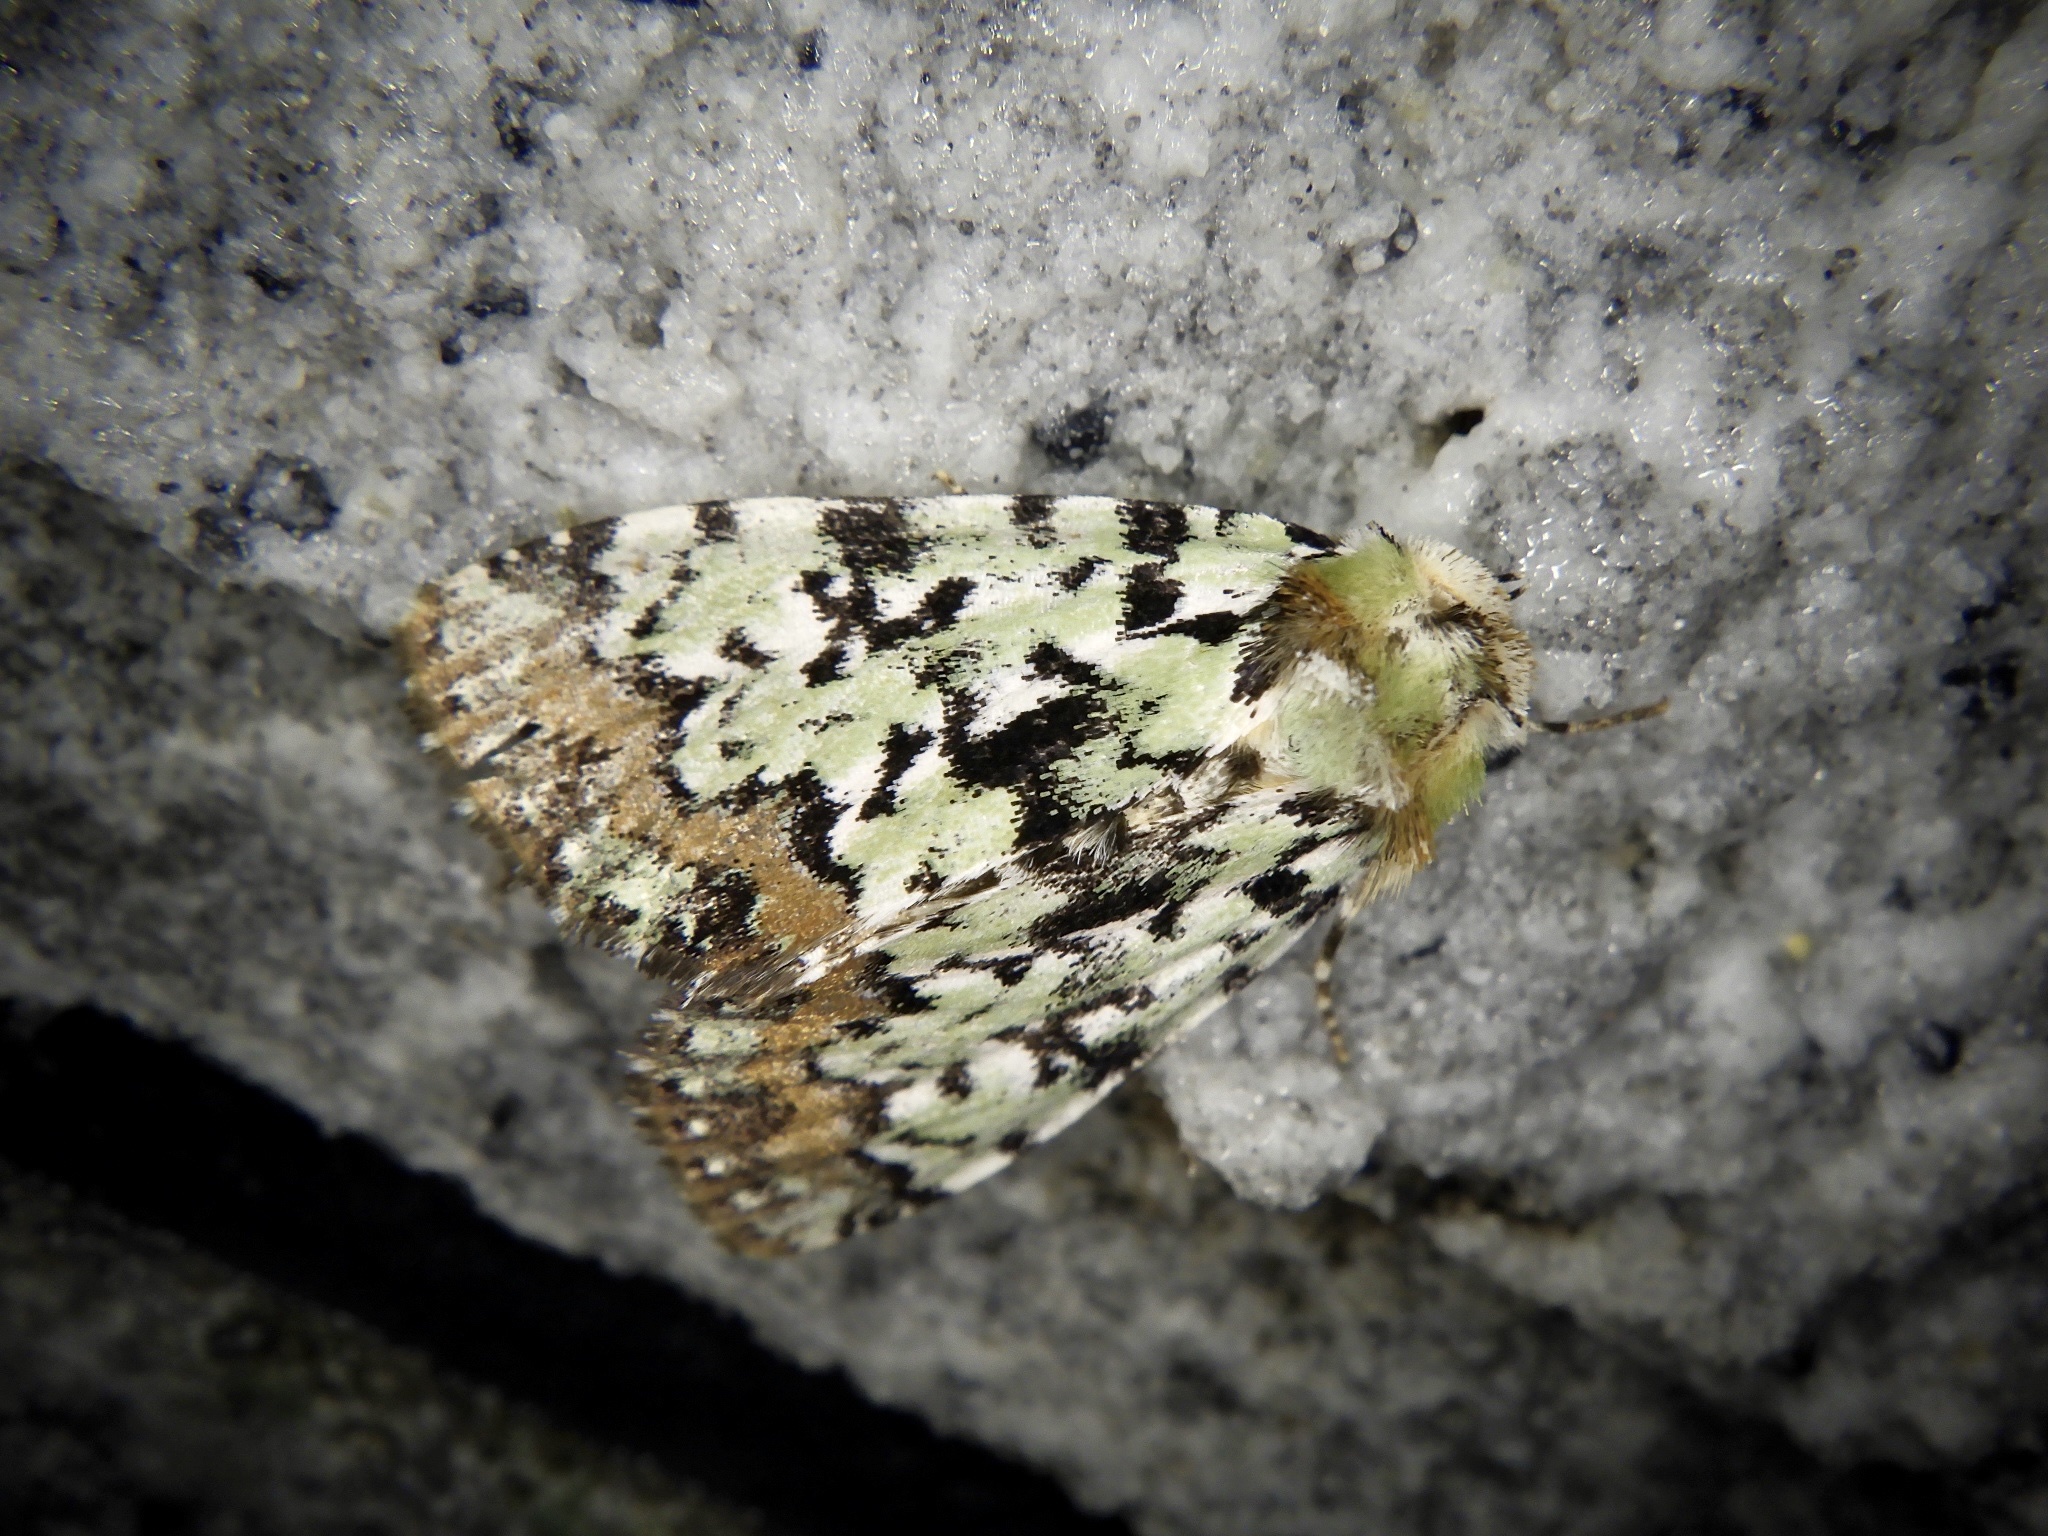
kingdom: Animalia
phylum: Arthropoda
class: Insecta
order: Lepidoptera
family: Noctuidae
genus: Moma
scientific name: Moma
